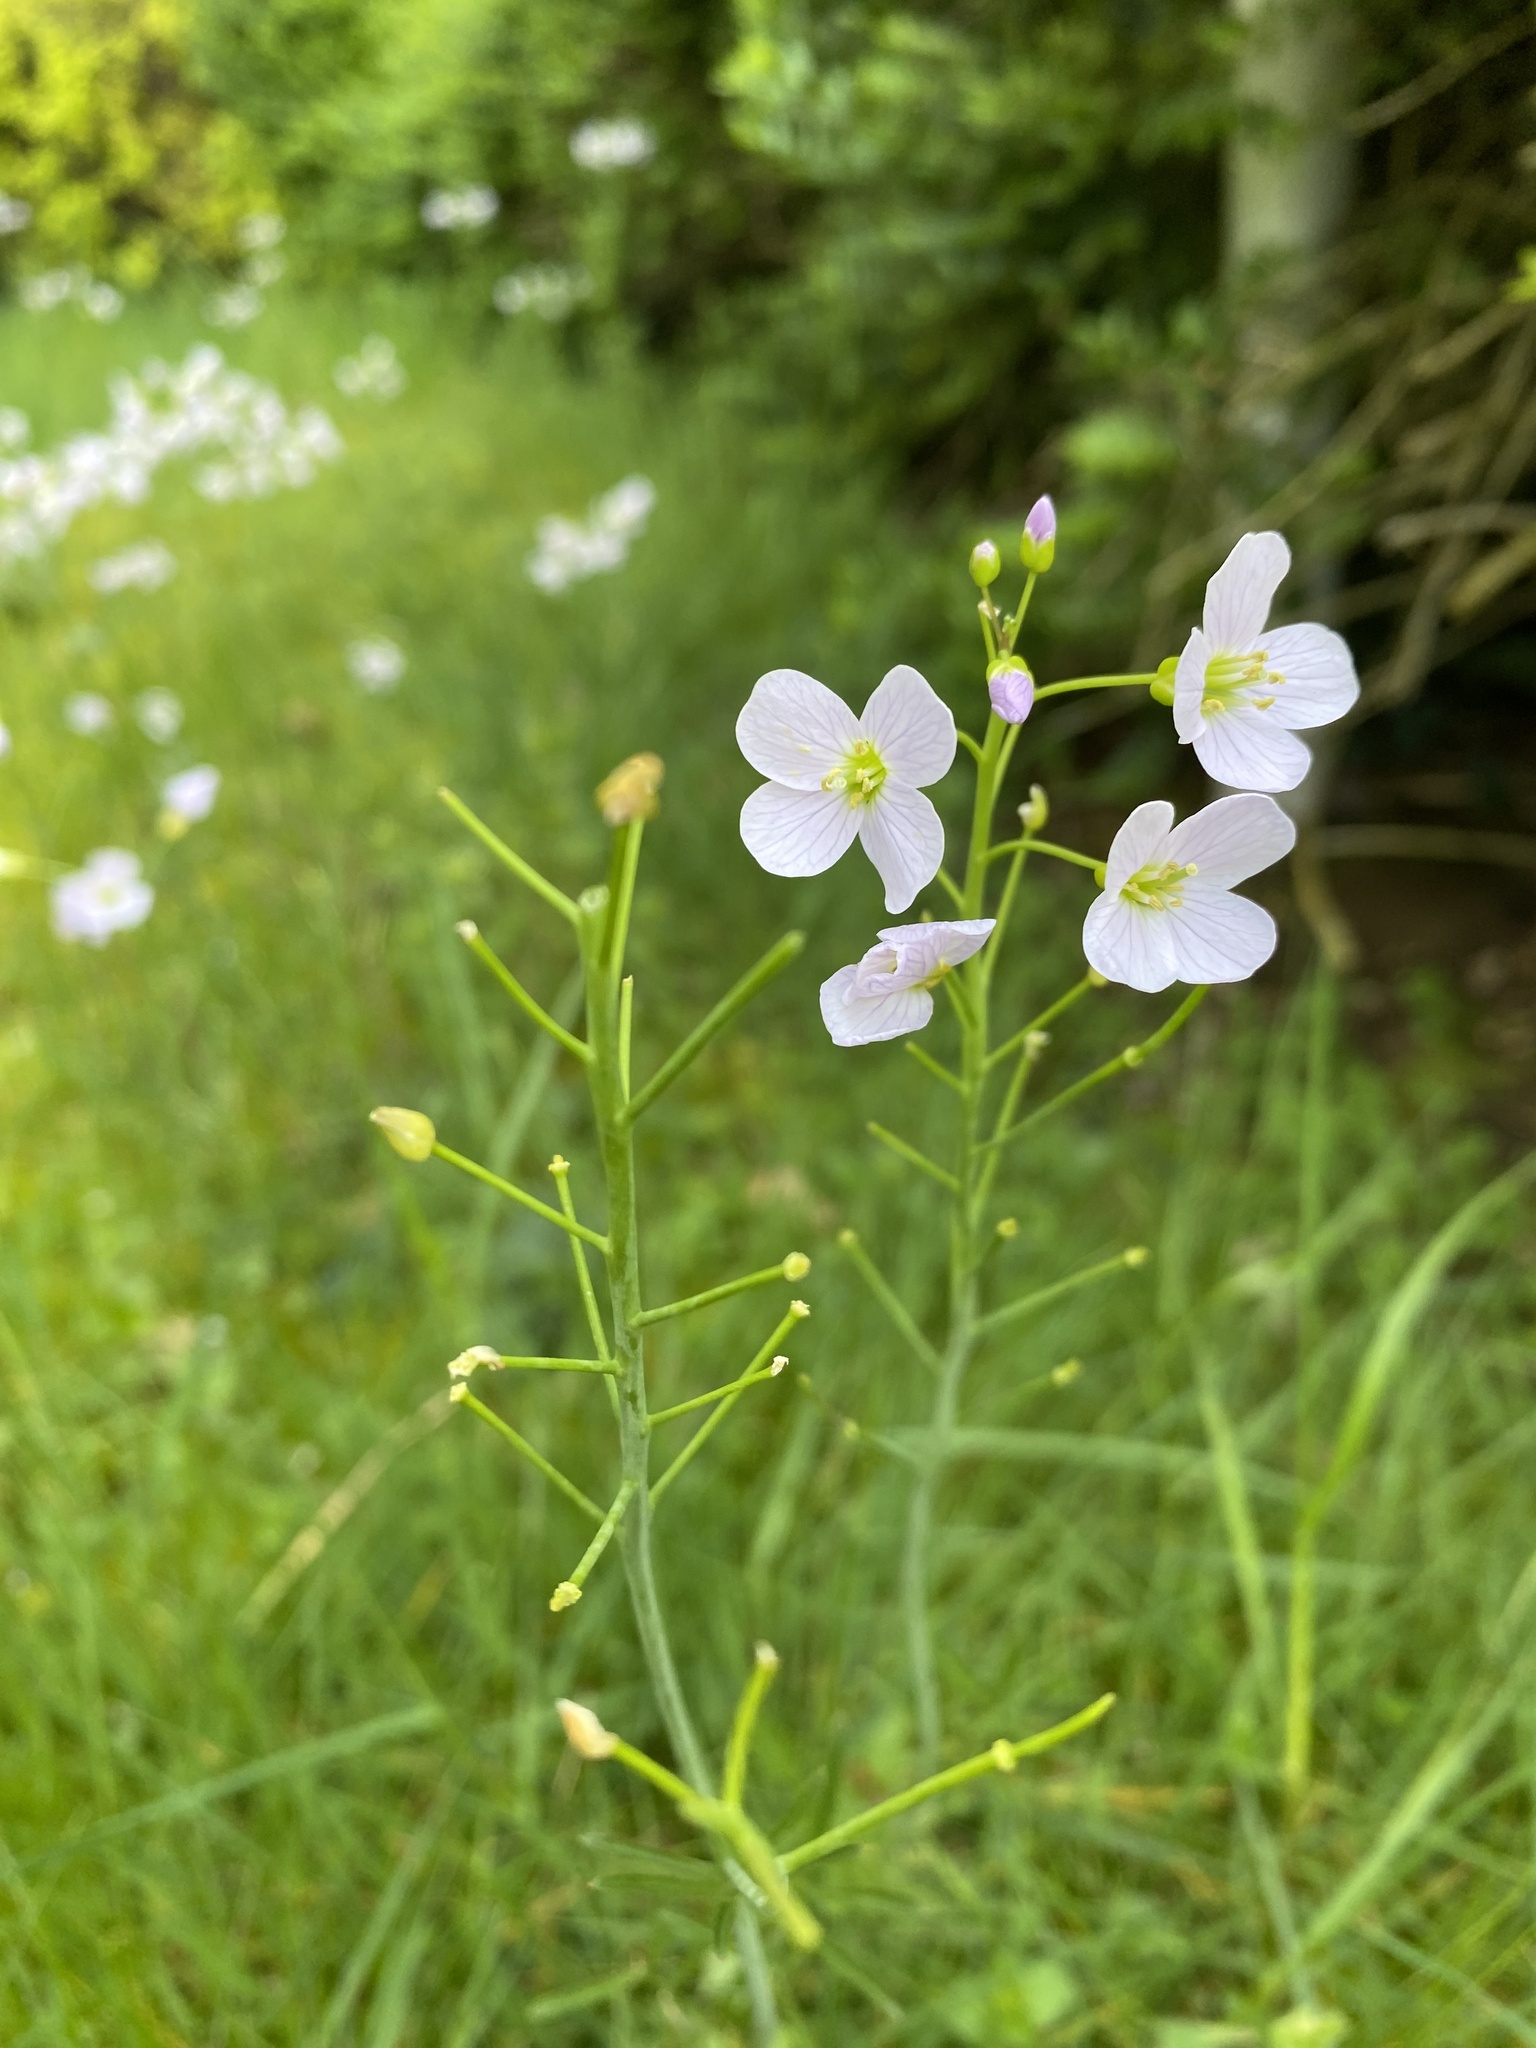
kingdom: Plantae
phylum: Tracheophyta
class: Magnoliopsida
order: Brassicales
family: Brassicaceae
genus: Cardamine
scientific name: Cardamine pratensis
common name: Cuckoo flower
